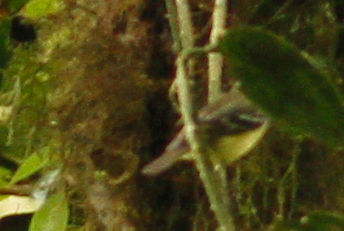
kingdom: Animalia
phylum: Chordata
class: Aves
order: Passeriformes
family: Tyrannidae
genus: Phyllomyias
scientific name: Phyllomyias nigrocapillus
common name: Black-capped tyrannulet
